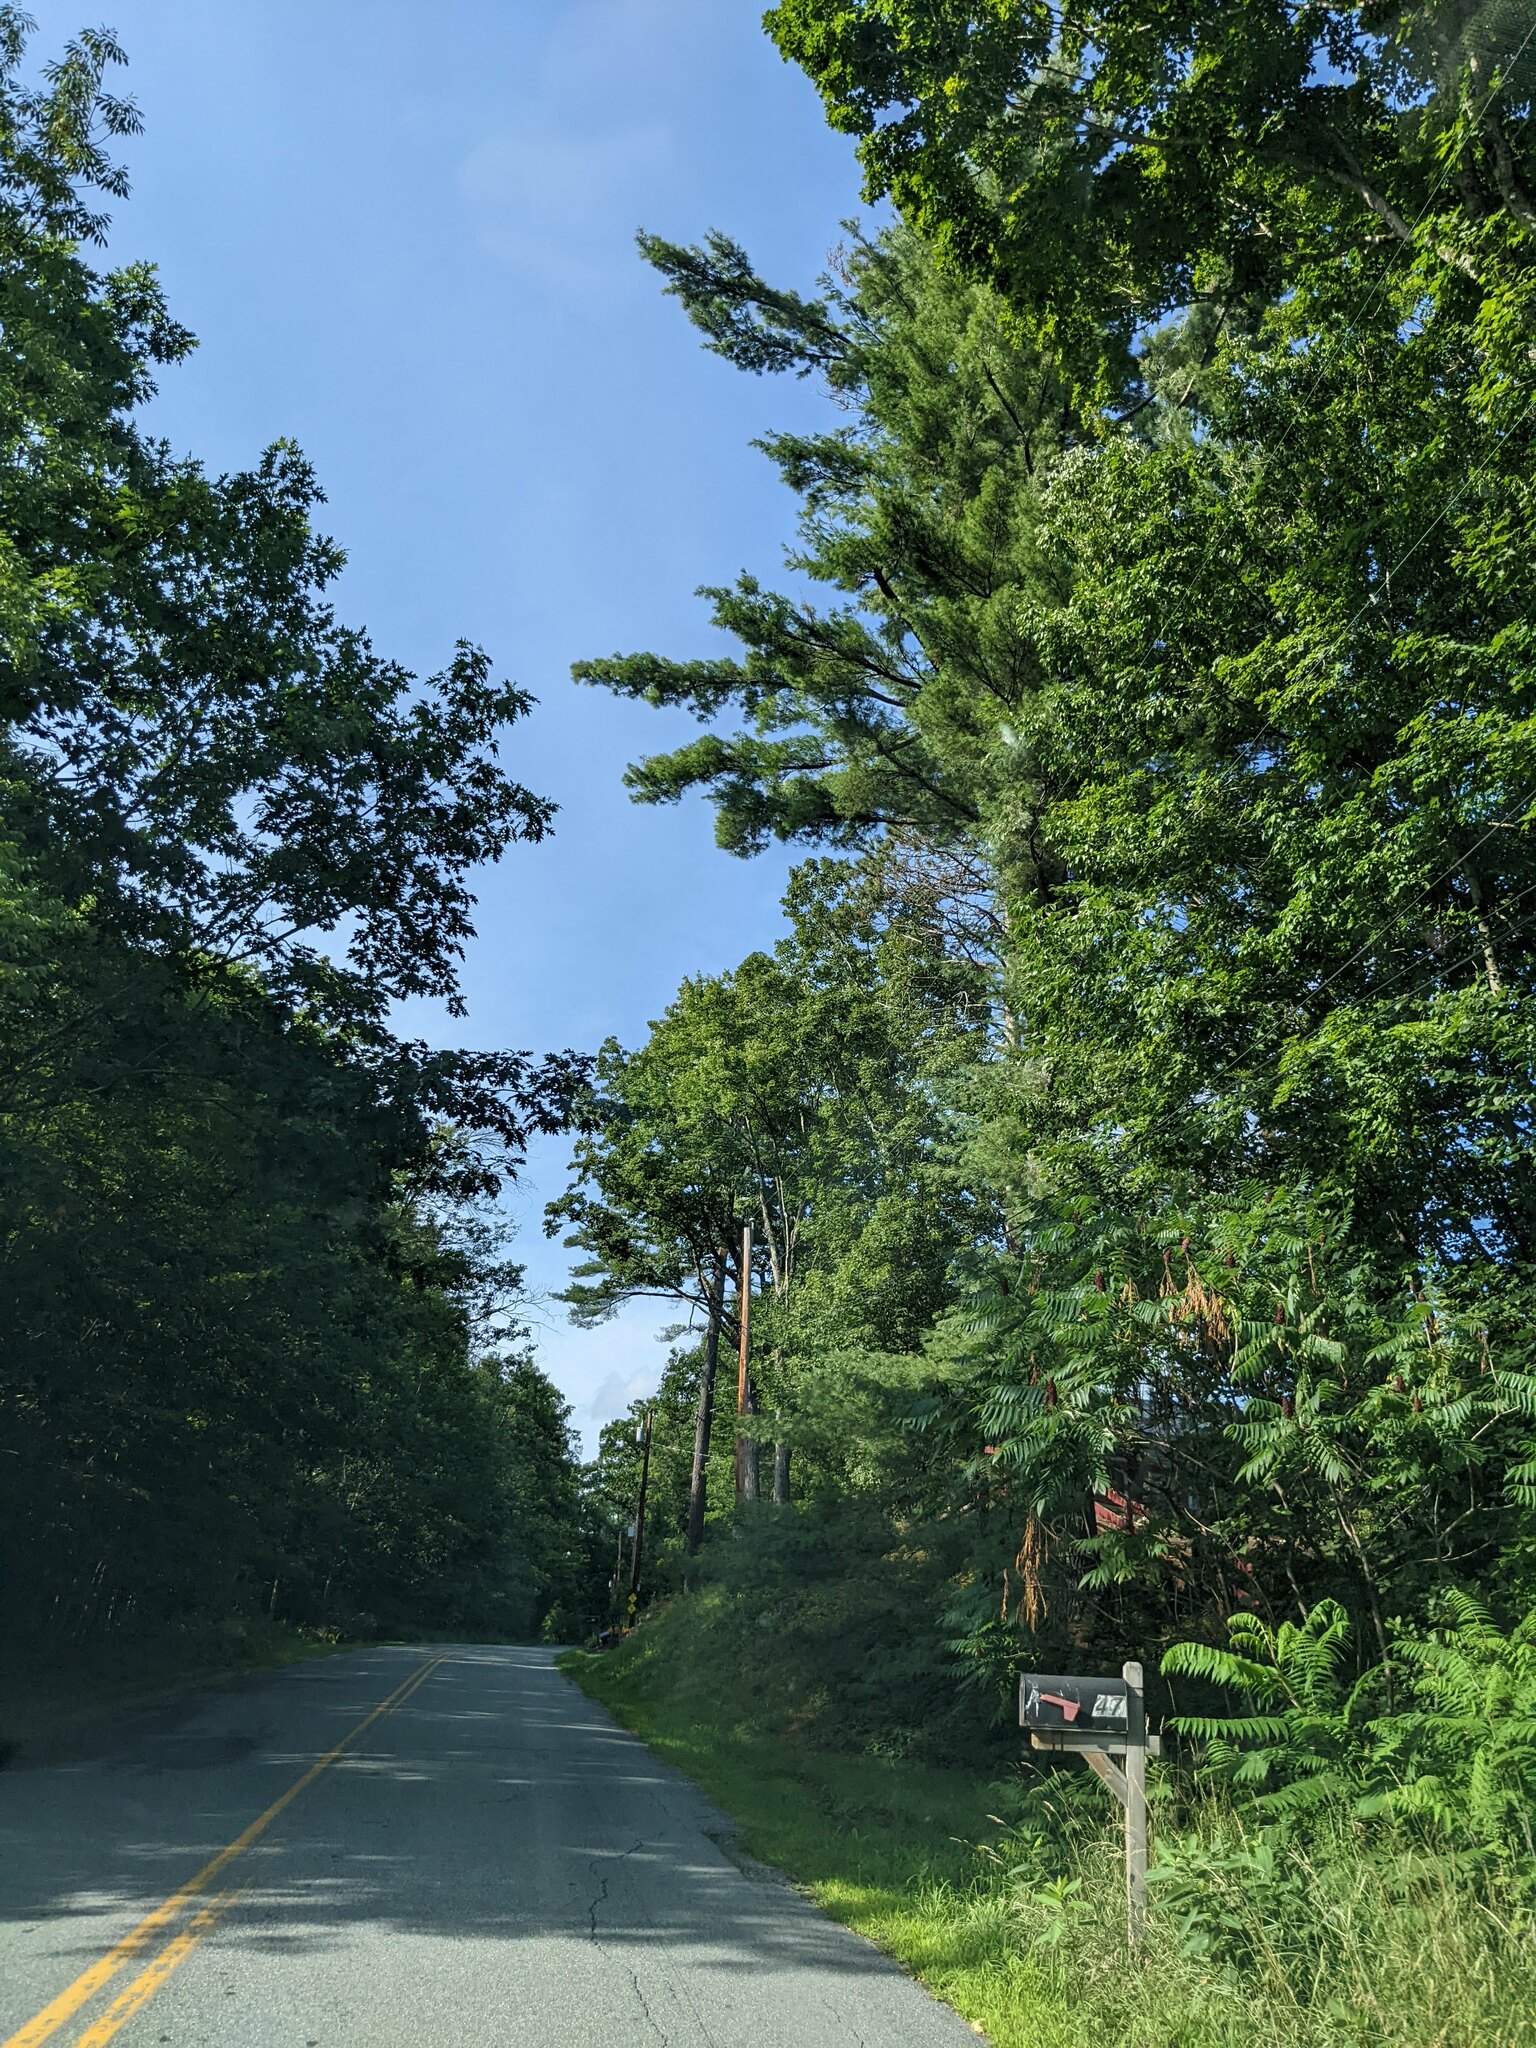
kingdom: Plantae
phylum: Tracheophyta
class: Pinopsida
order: Pinales
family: Pinaceae
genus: Pinus
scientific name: Pinus strobus
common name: Weymouth pine
